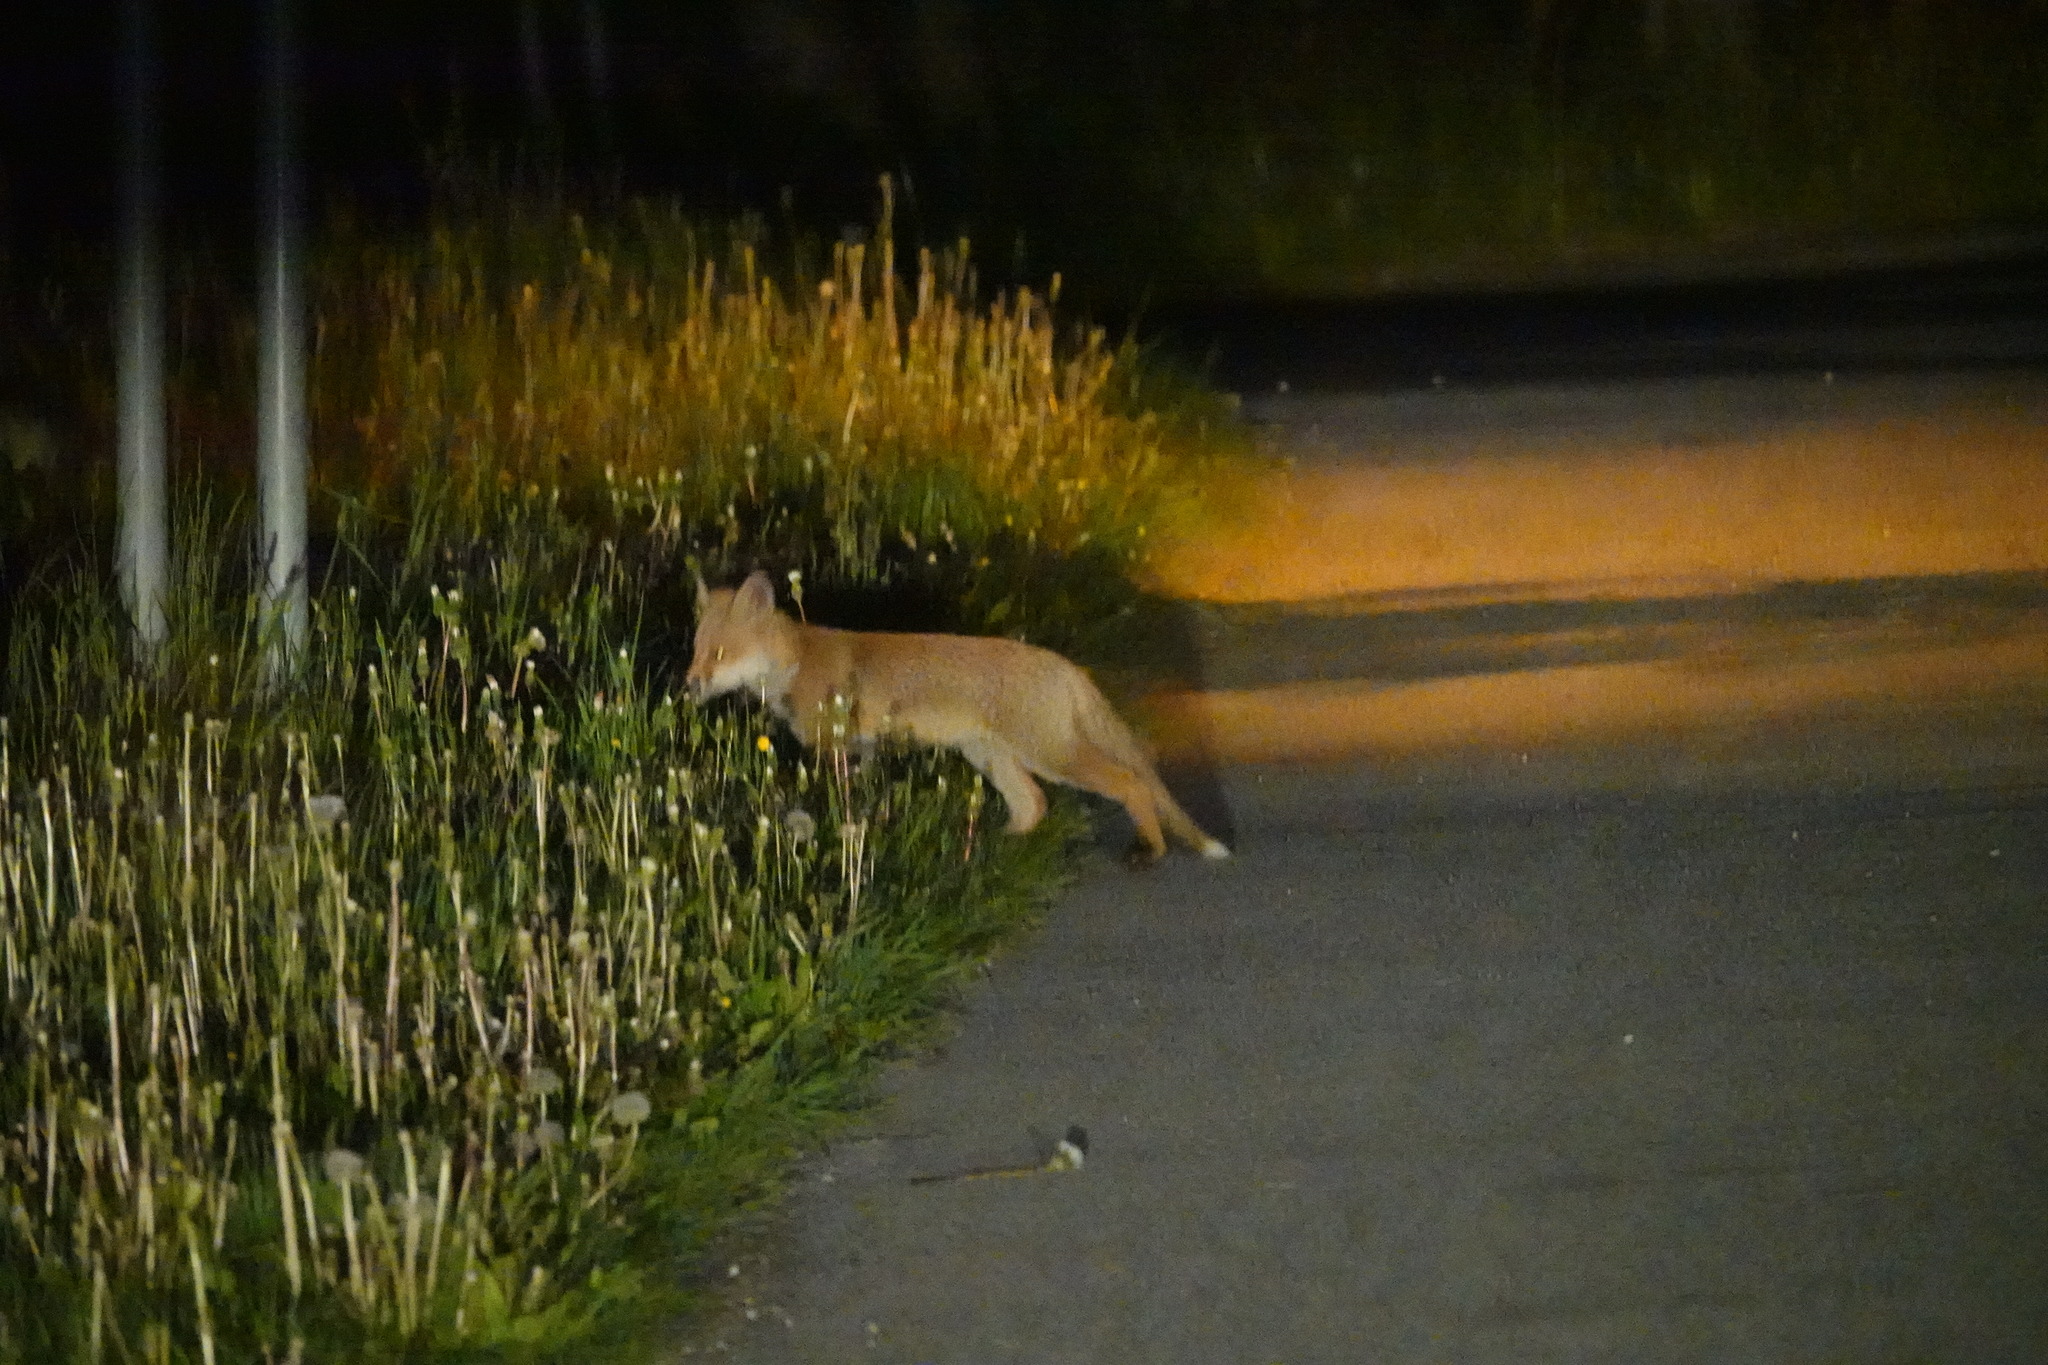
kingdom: Animalia
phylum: Chordata
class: Mammalia
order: Carnivora
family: Canidae
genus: Vulpes
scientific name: Vulpes vulpes
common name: Red fox
